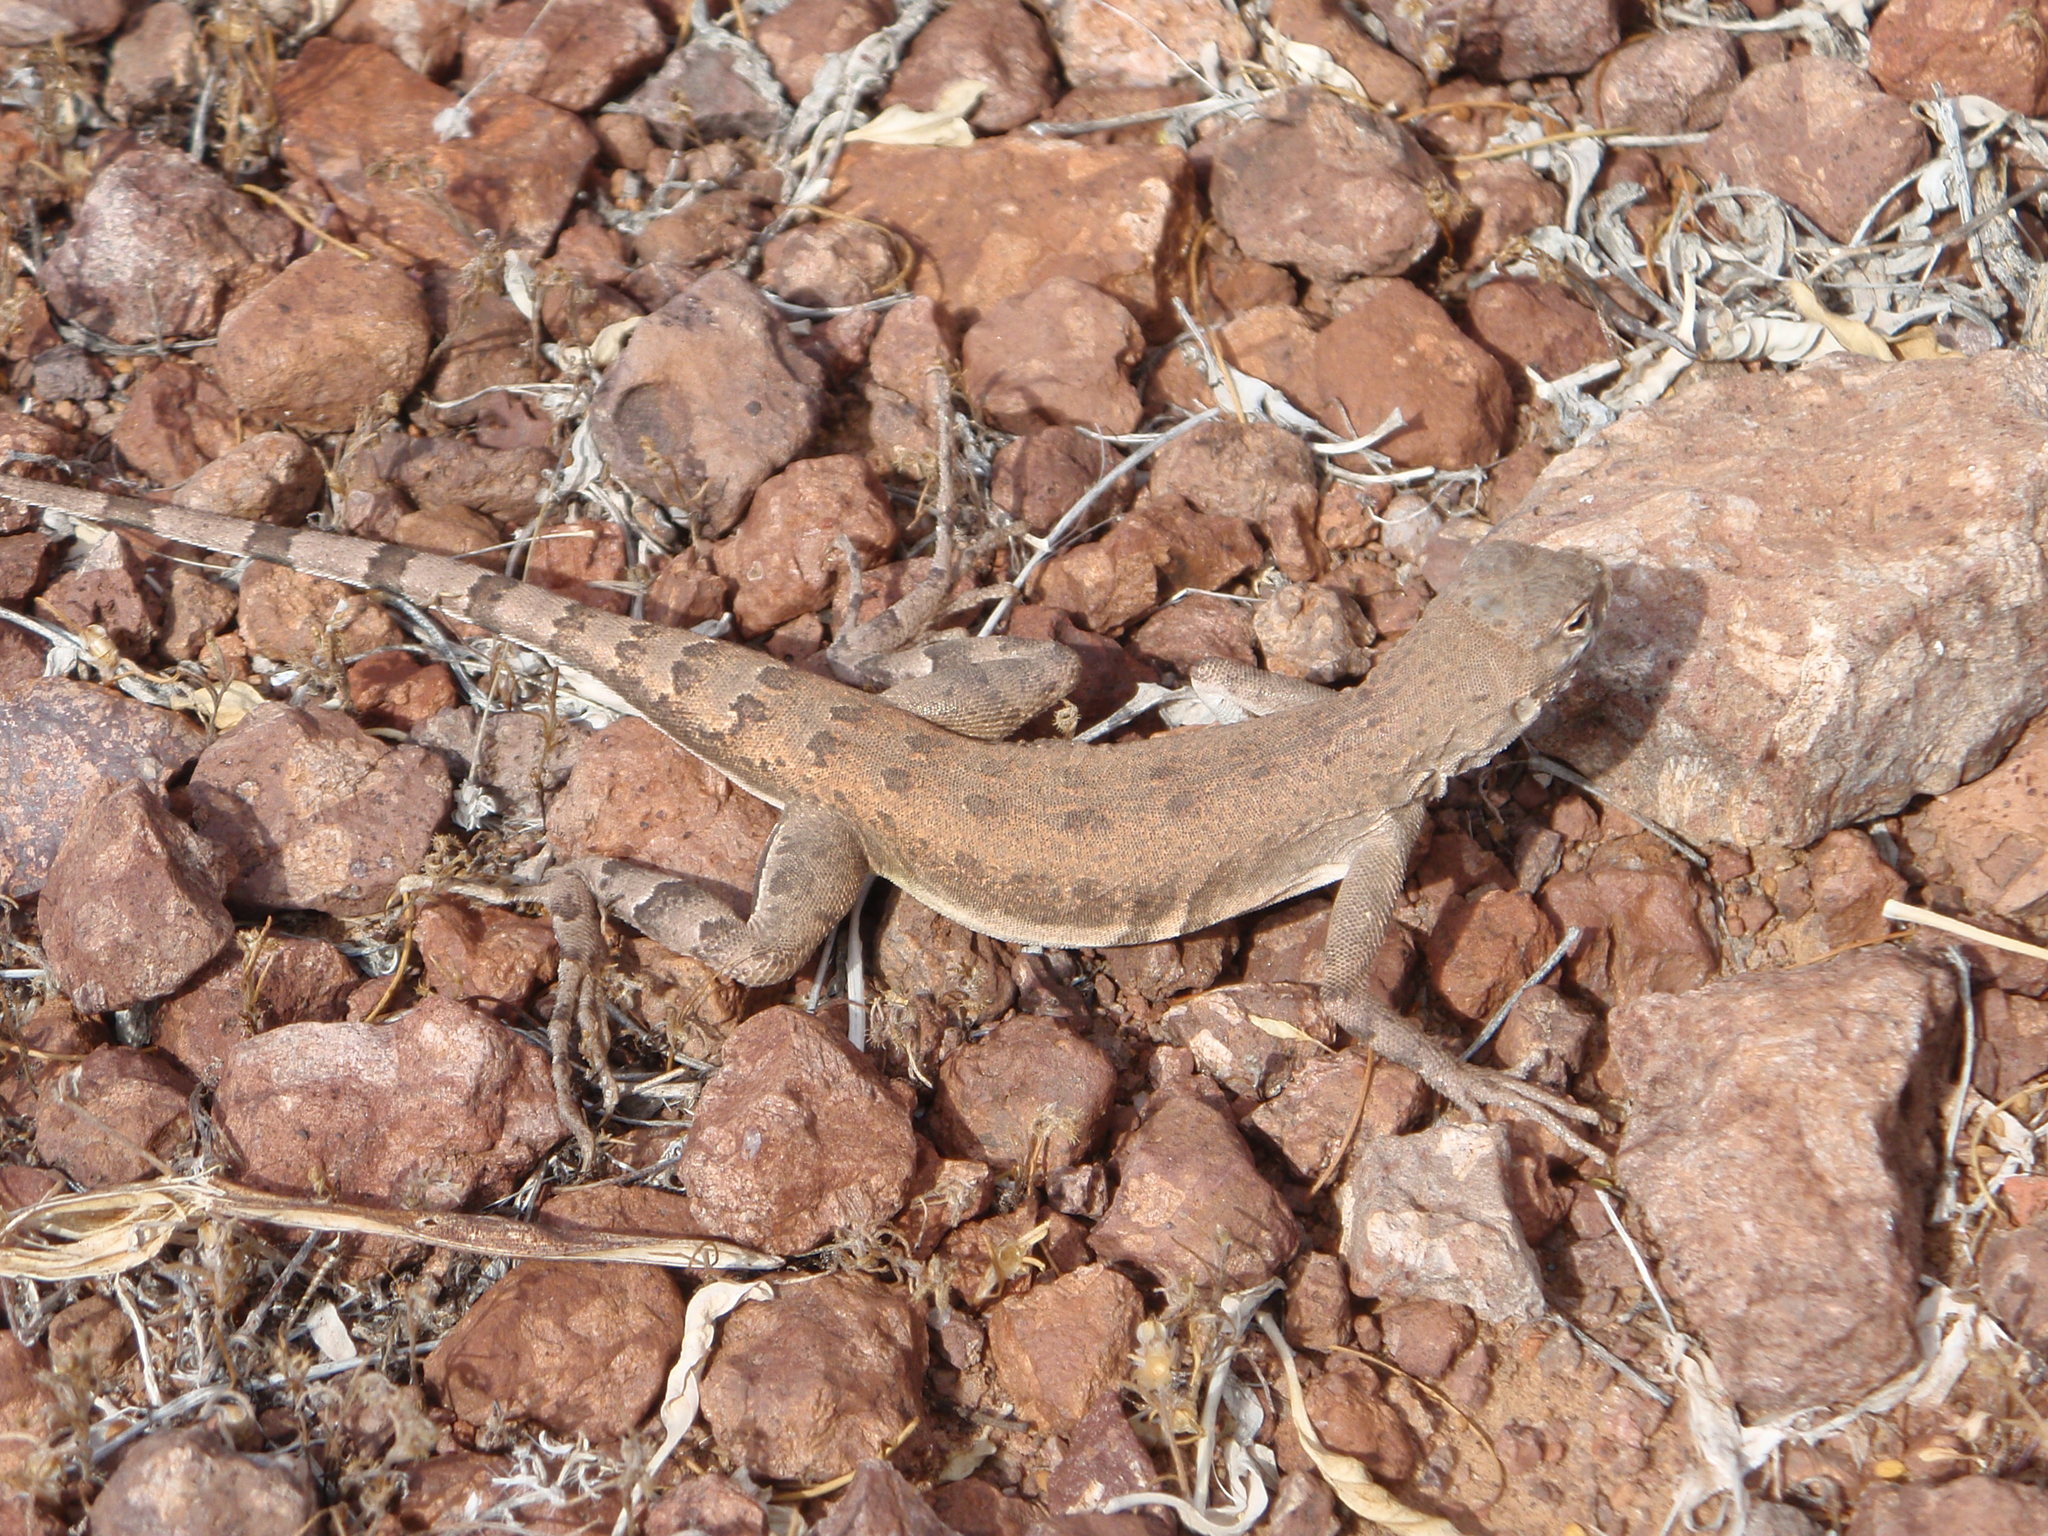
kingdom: Animalia
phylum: Chordata
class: Squamata
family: Phrynosomatidae
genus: Callisaurus
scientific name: Callisaurus draconoides
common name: Zebra-tailed lizard
